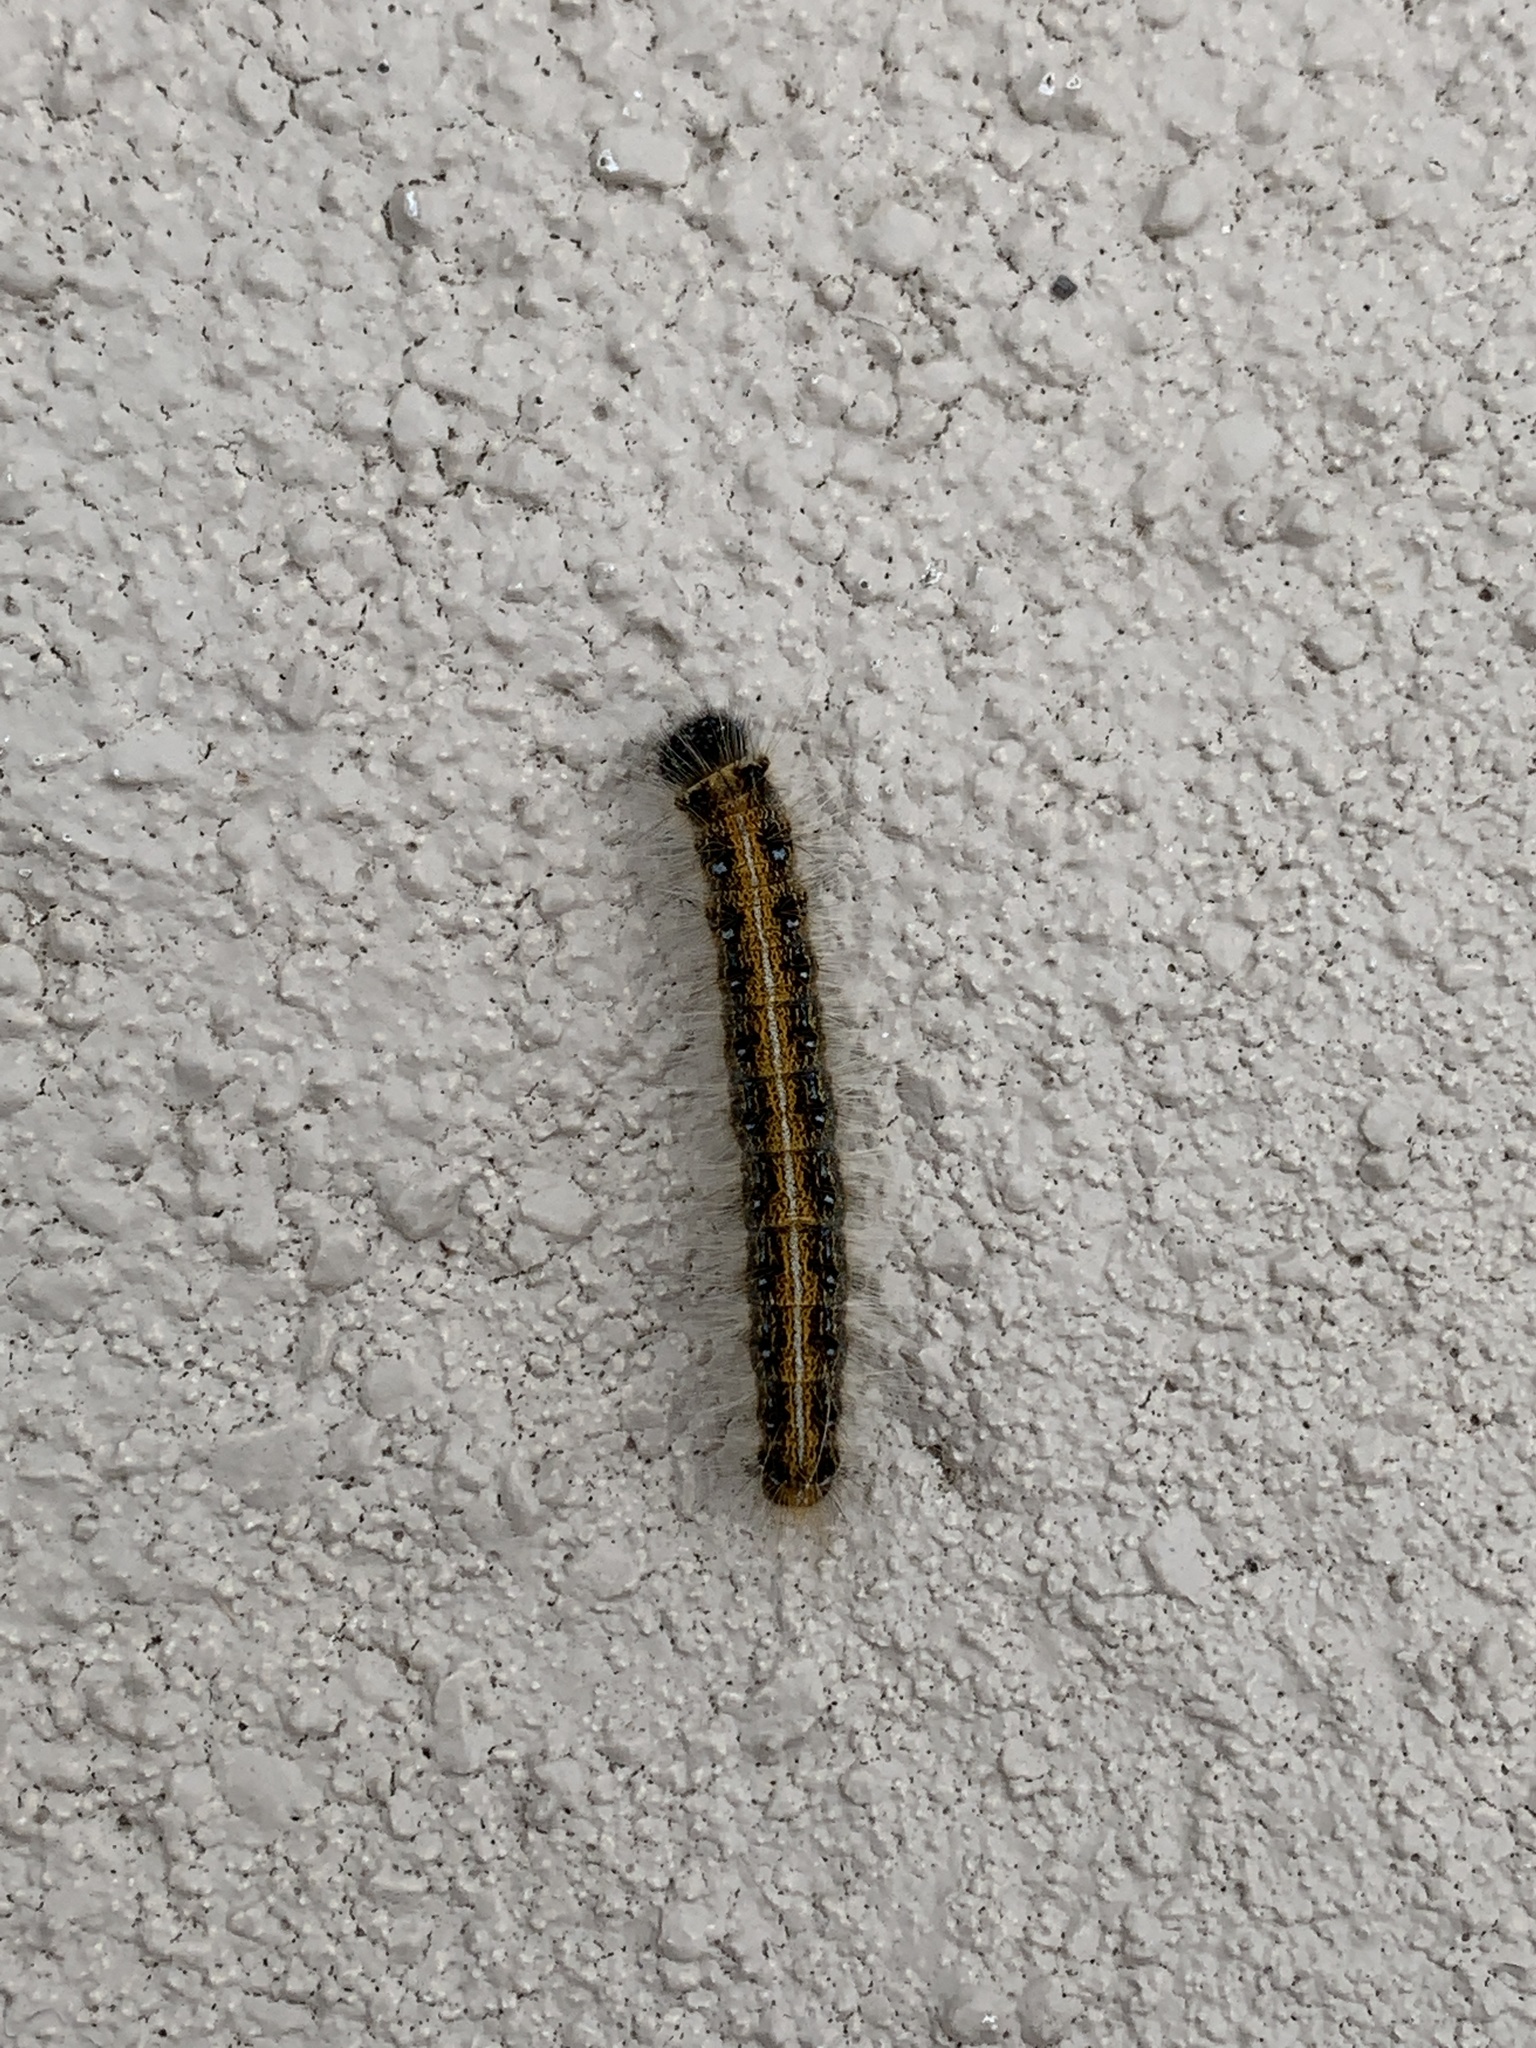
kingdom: Animalia
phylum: Arthropoda
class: Insecta
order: Lepidoptera
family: Lasiocampidae
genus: Malacosoma
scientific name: Malacosoma americana
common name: Eastern tent caterpillar moth
